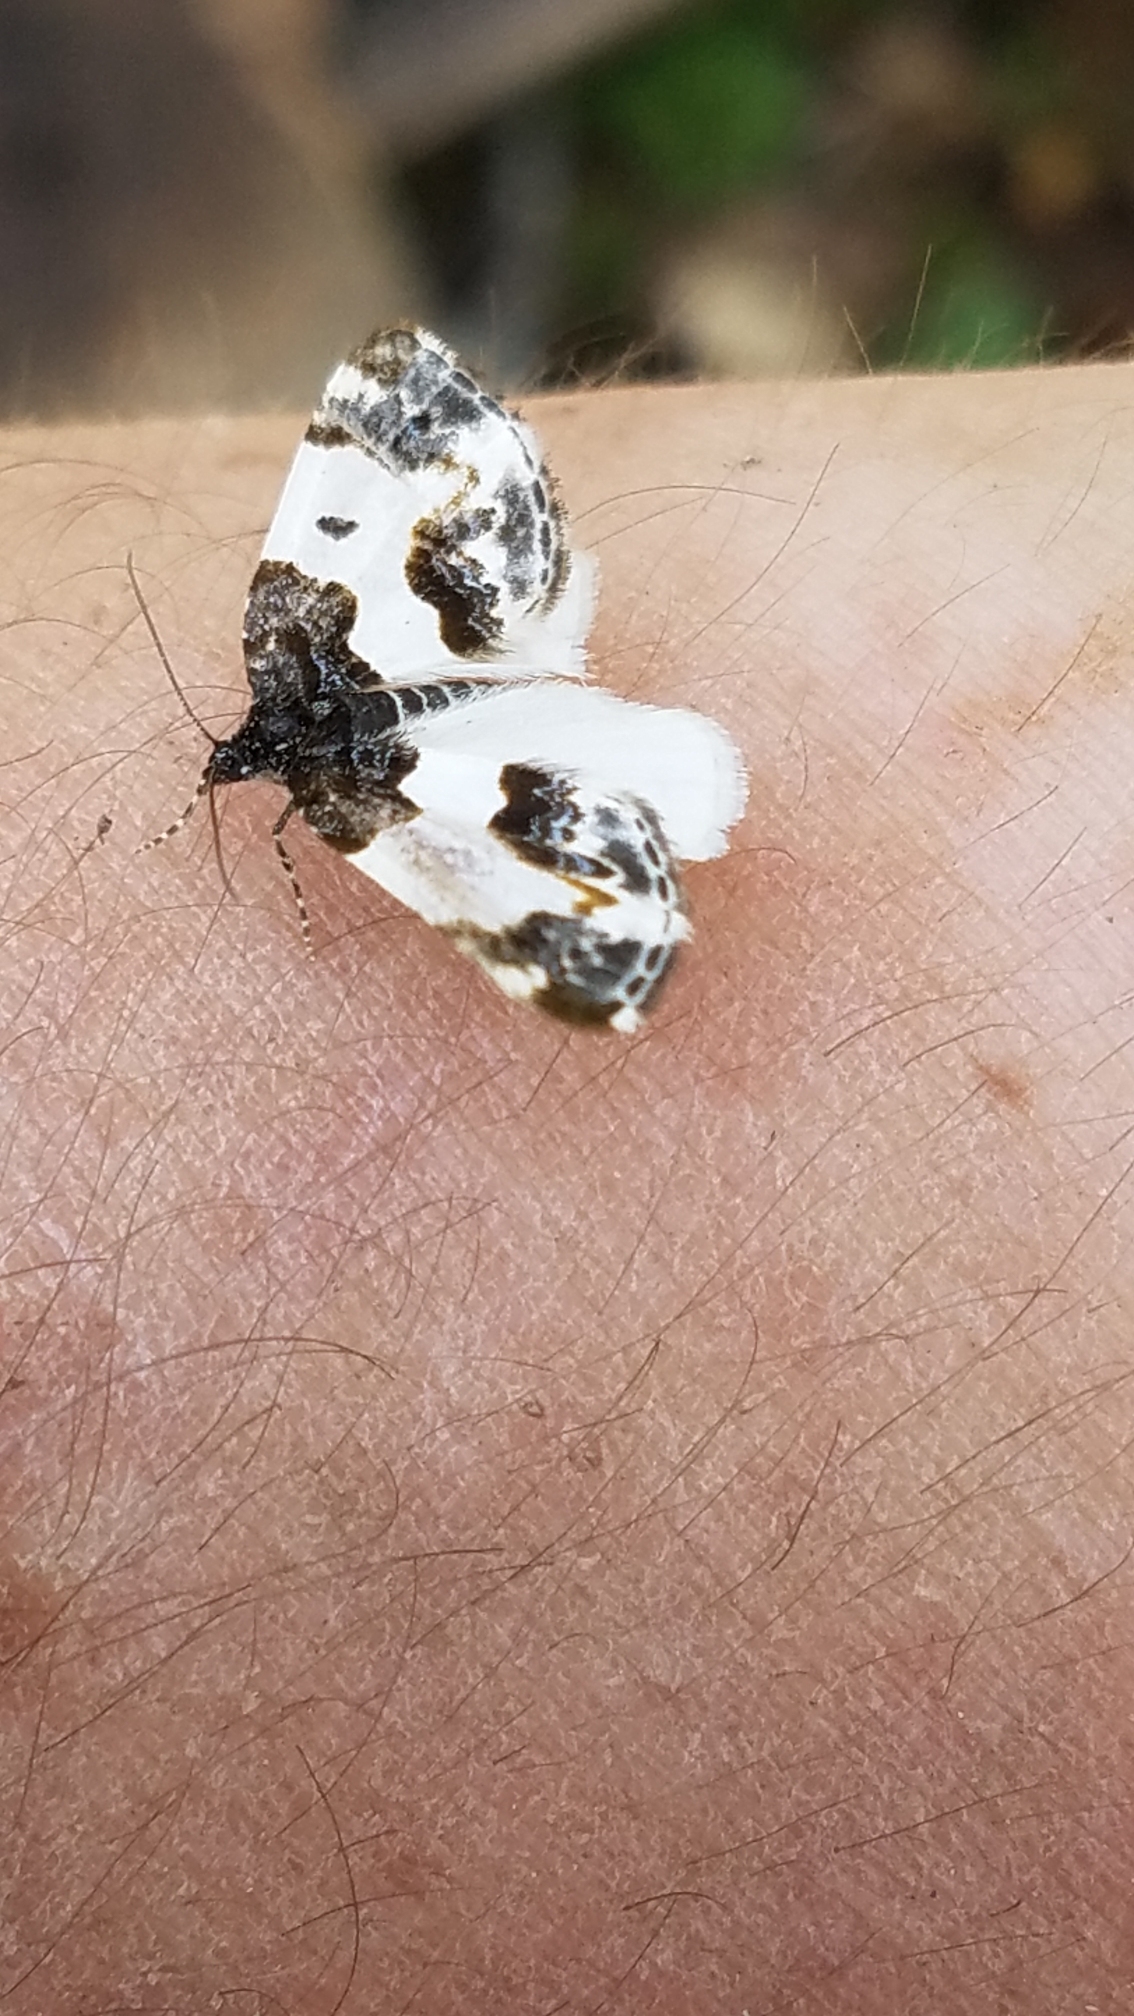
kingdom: Animalia
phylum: Arthropoda
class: Insecta
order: Lepidoptera
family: Geometridae
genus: Mesoleuca
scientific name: Mesoleuca gratulata
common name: Half-white carpet moth
